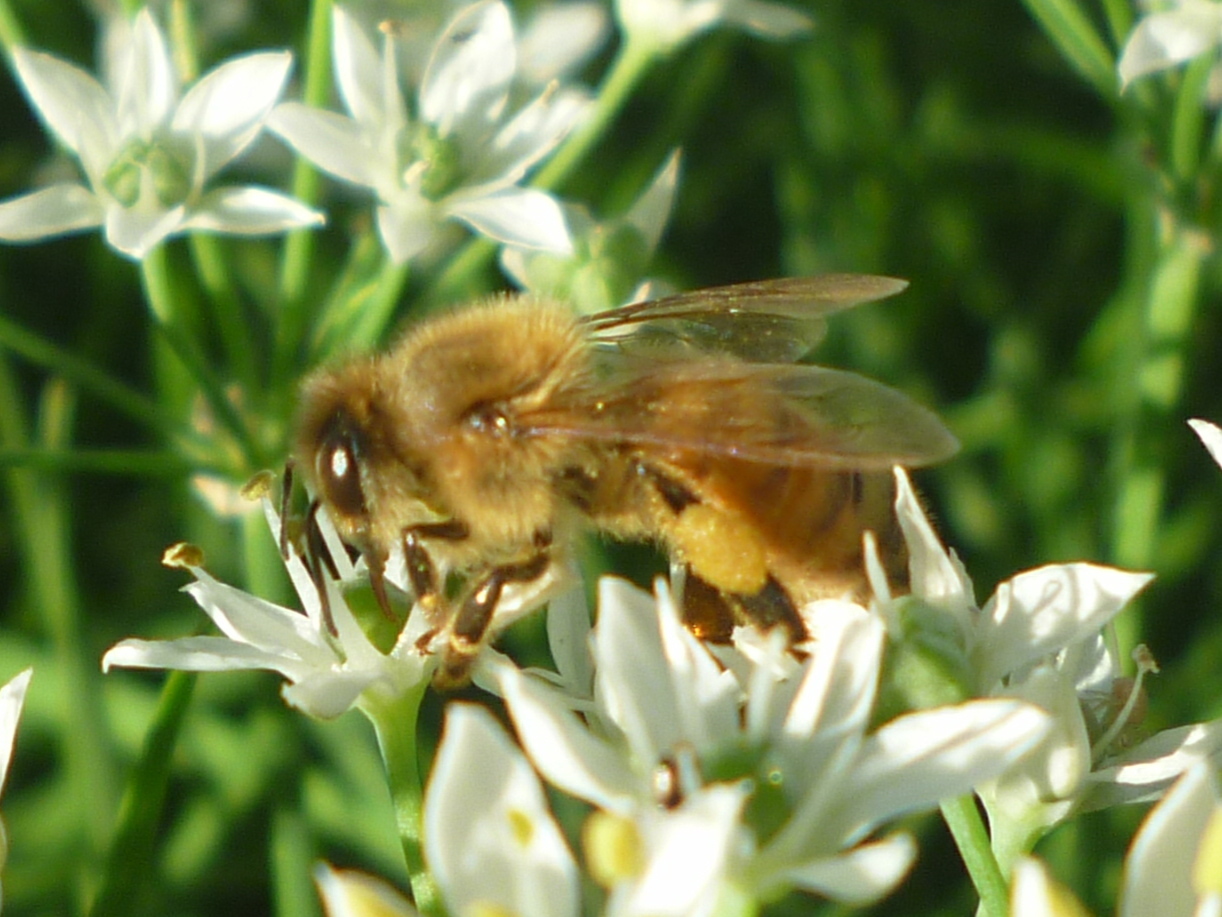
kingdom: Animalia
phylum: Arthropoda
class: Insecta
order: Hymenoptera
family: Apidae
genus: Apis
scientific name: Apis mellifera
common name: Honey bee
